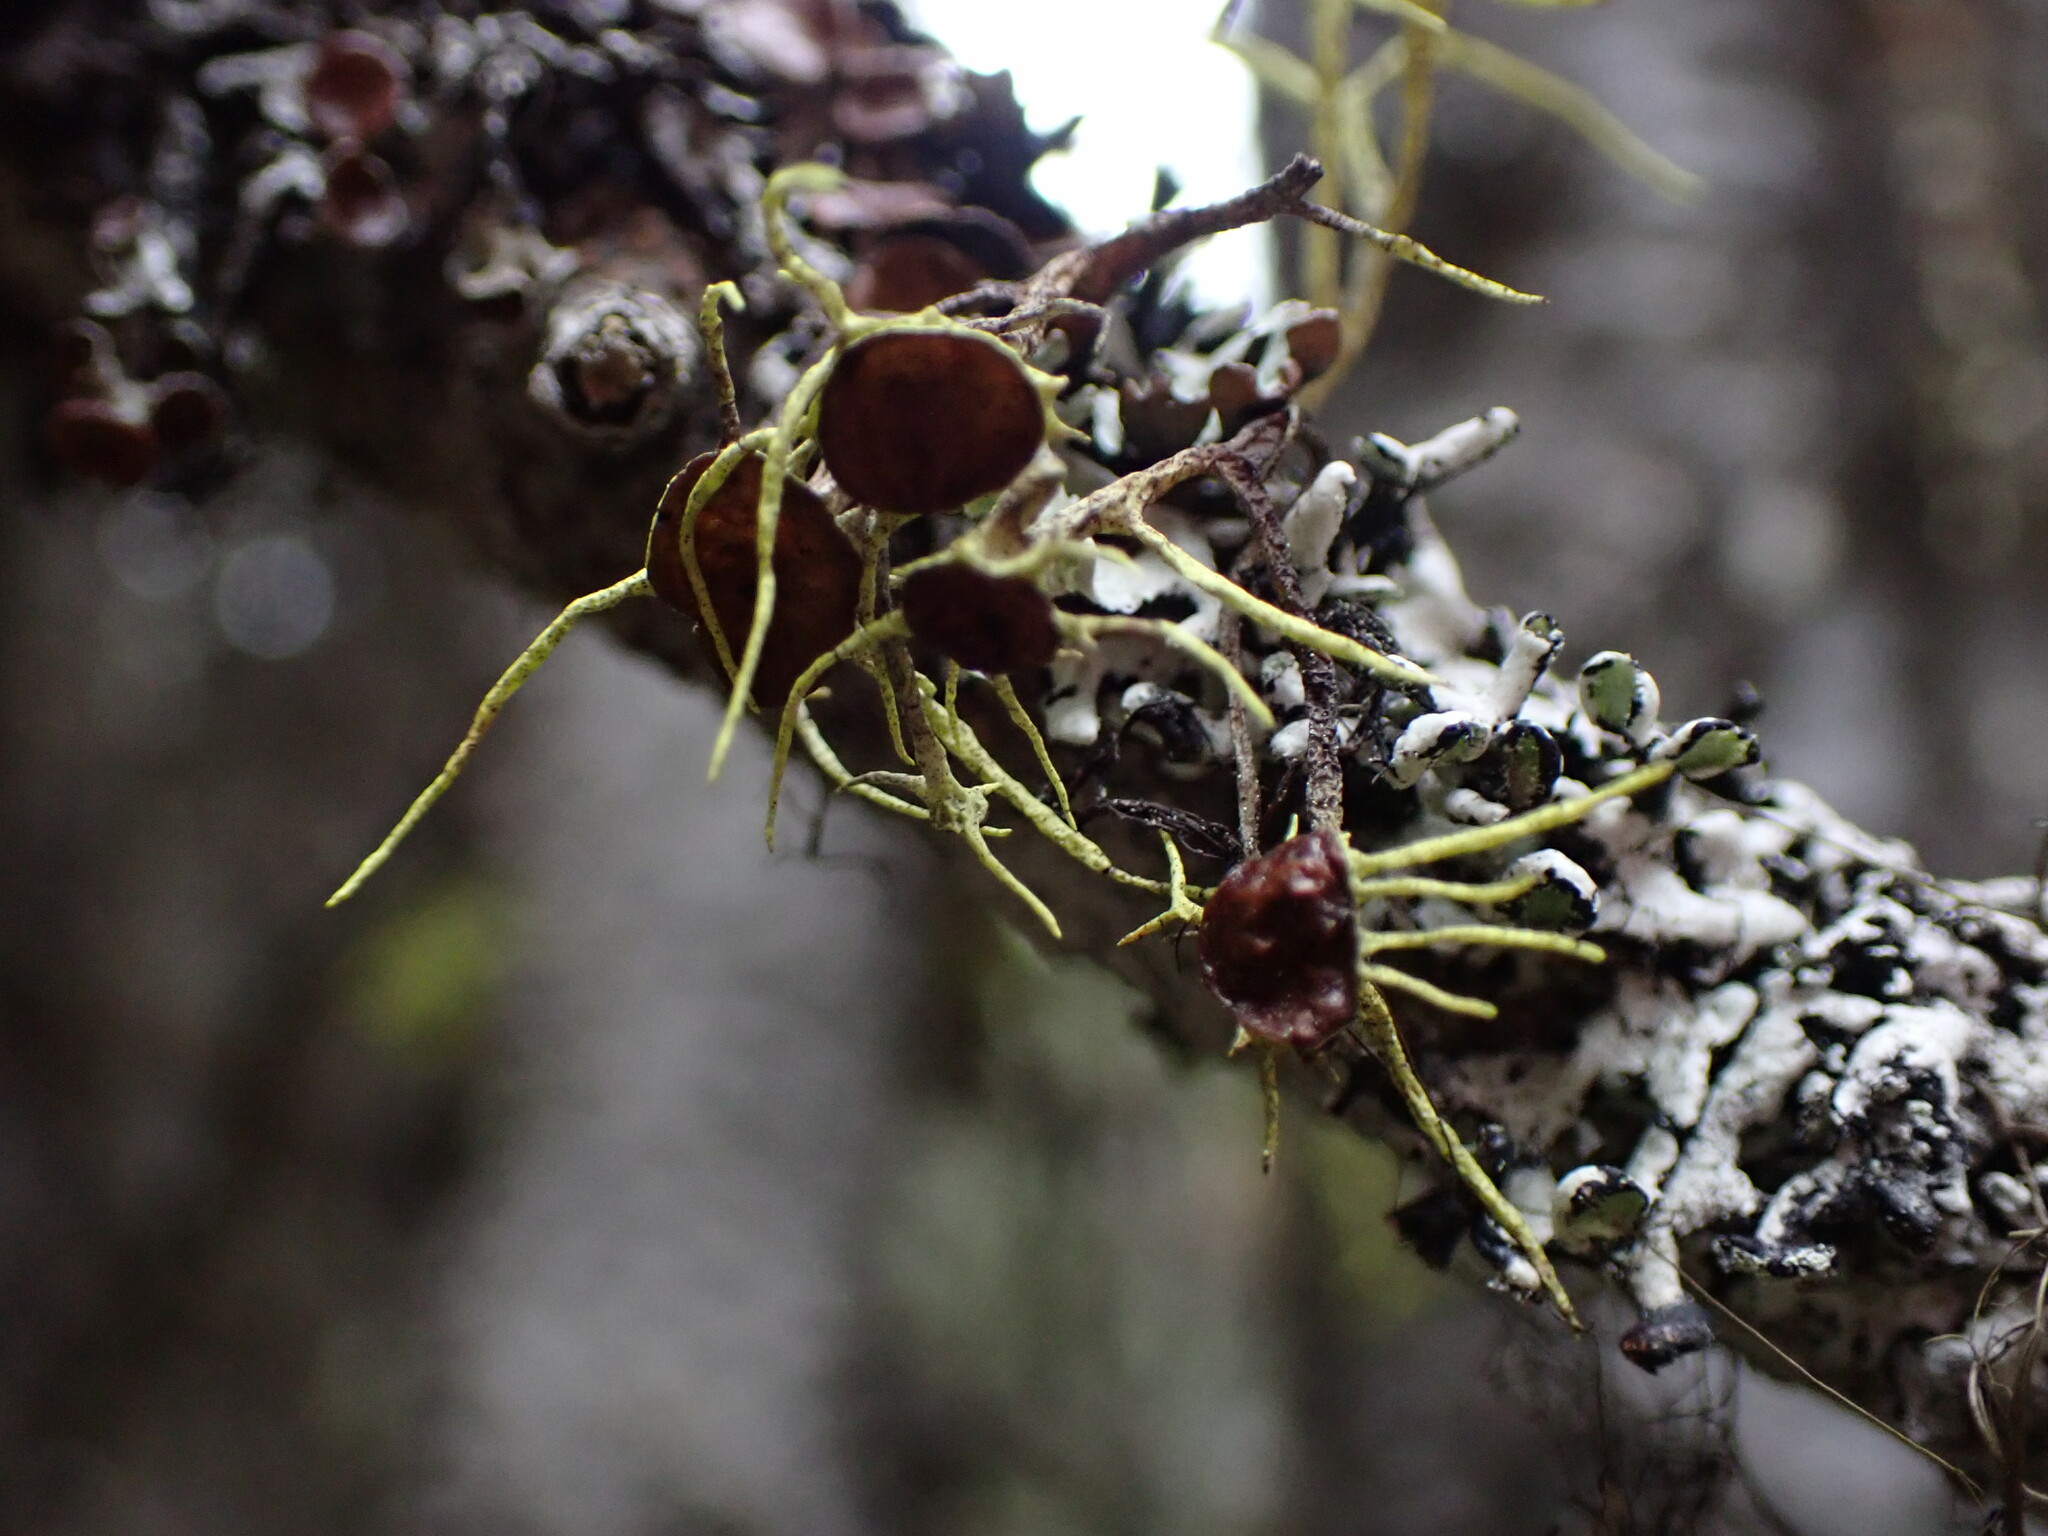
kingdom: Fungi
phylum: Ascomycota
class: Lecanoromycetes
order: Lecanorales
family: Parmeliaceae
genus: Letharia
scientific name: Letharia columbiana
